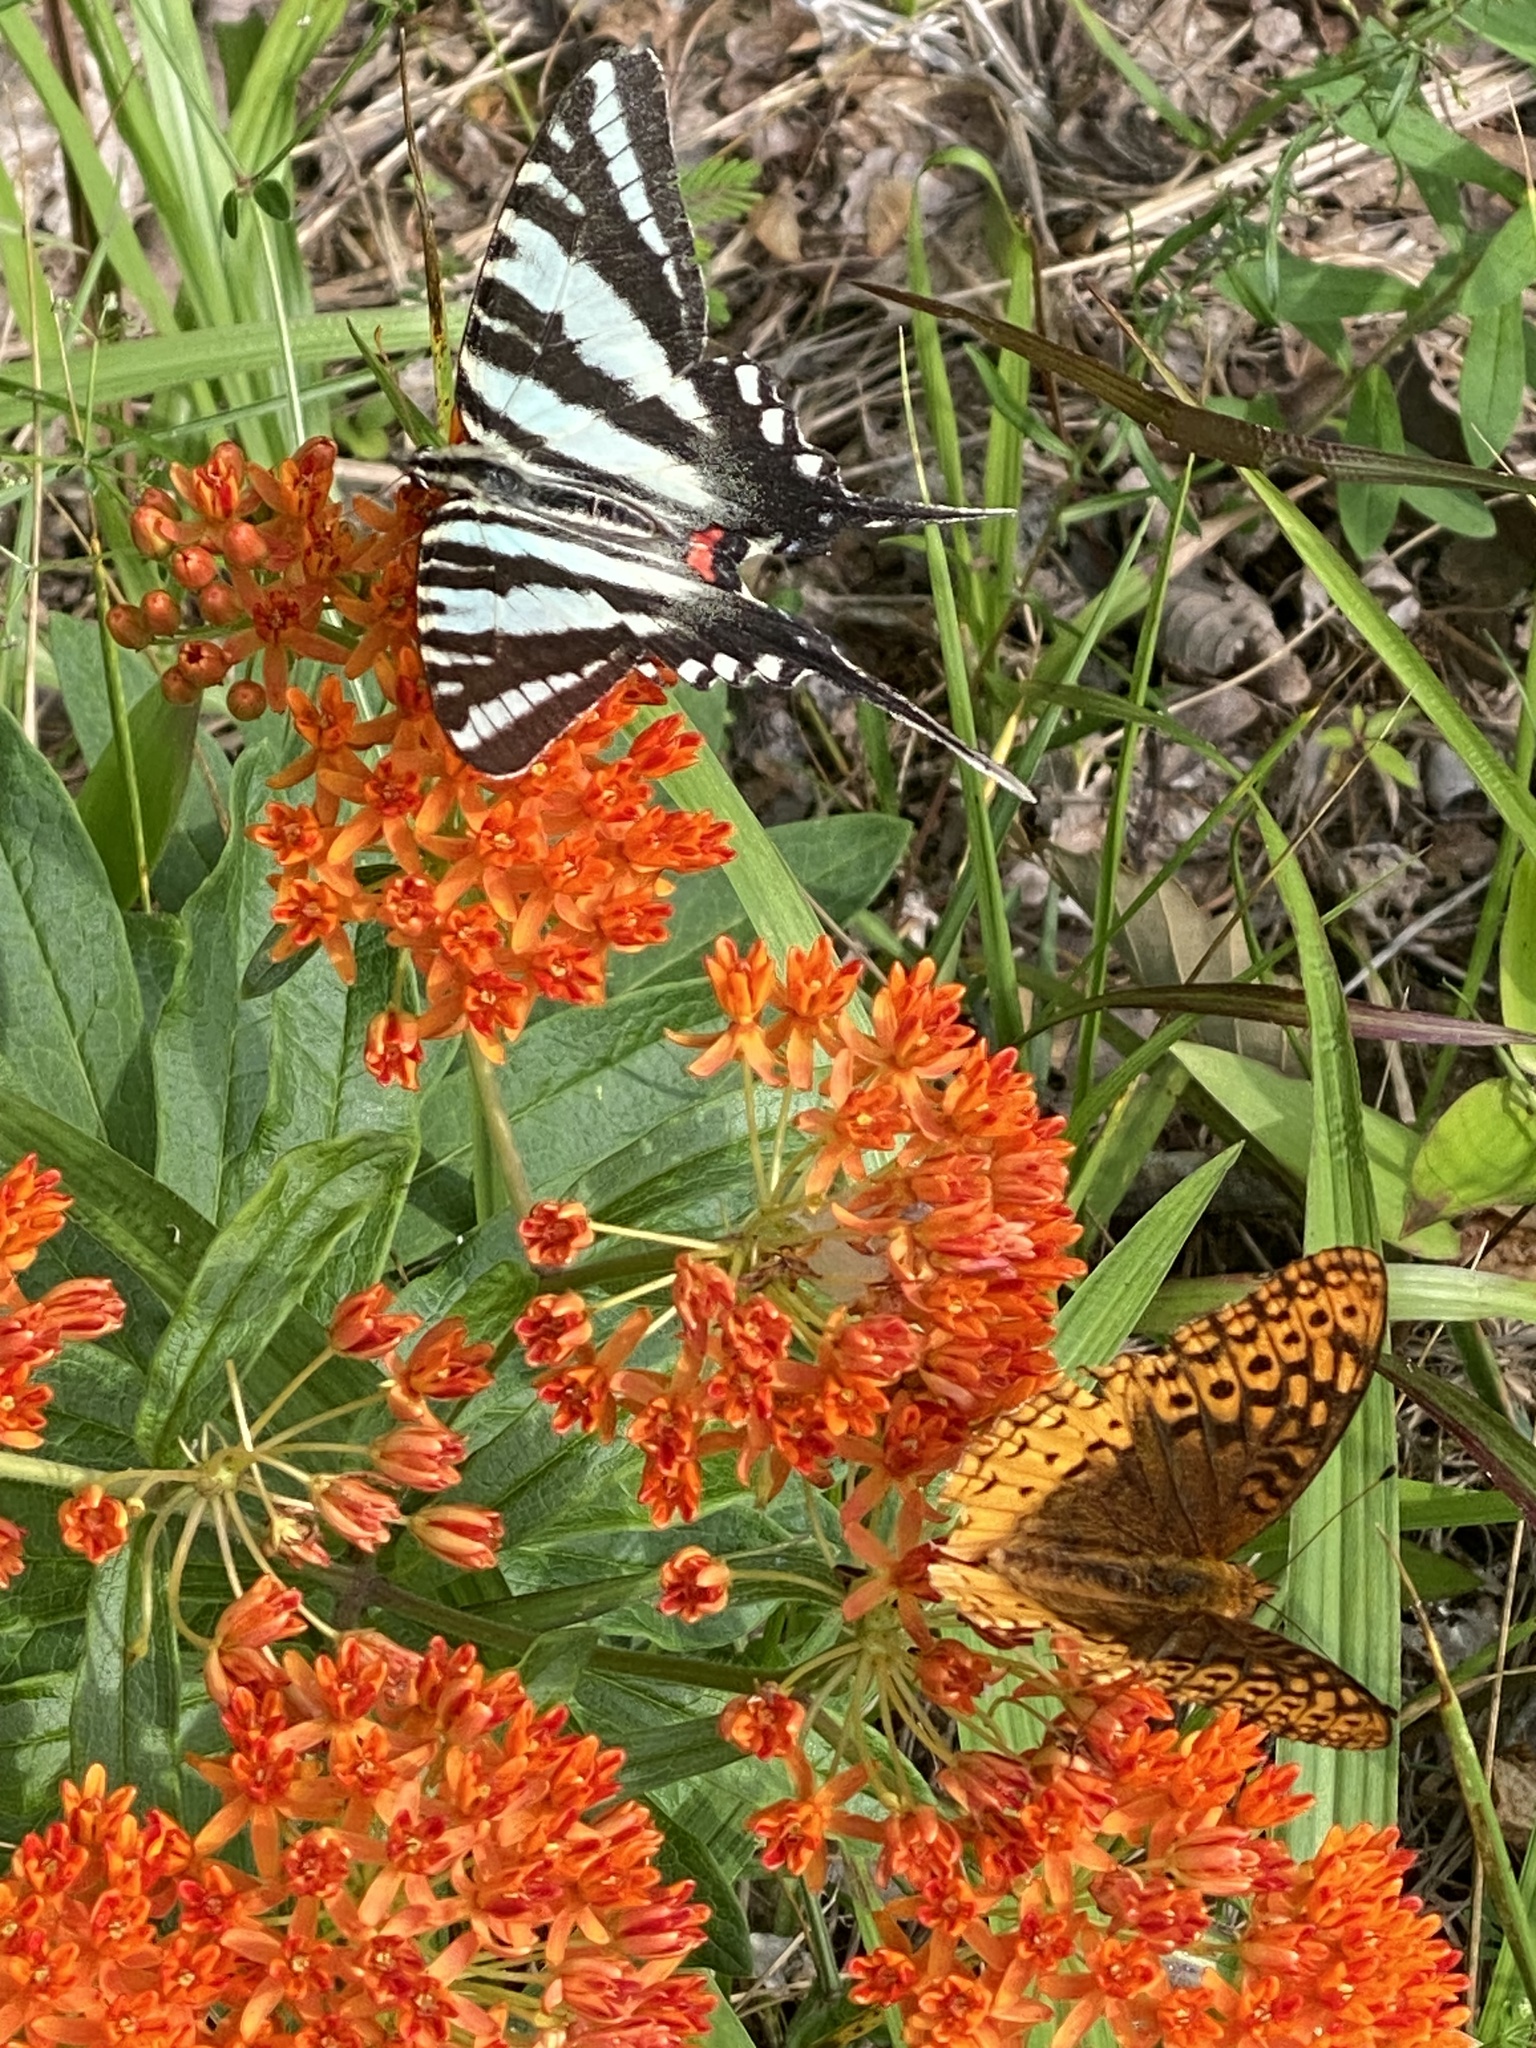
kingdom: Animalia
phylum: Arthropoda
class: Insecta
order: Lepidoptera
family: Papilionidae
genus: Protographium
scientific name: Protographium marcellus
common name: Zebra swallowtail
